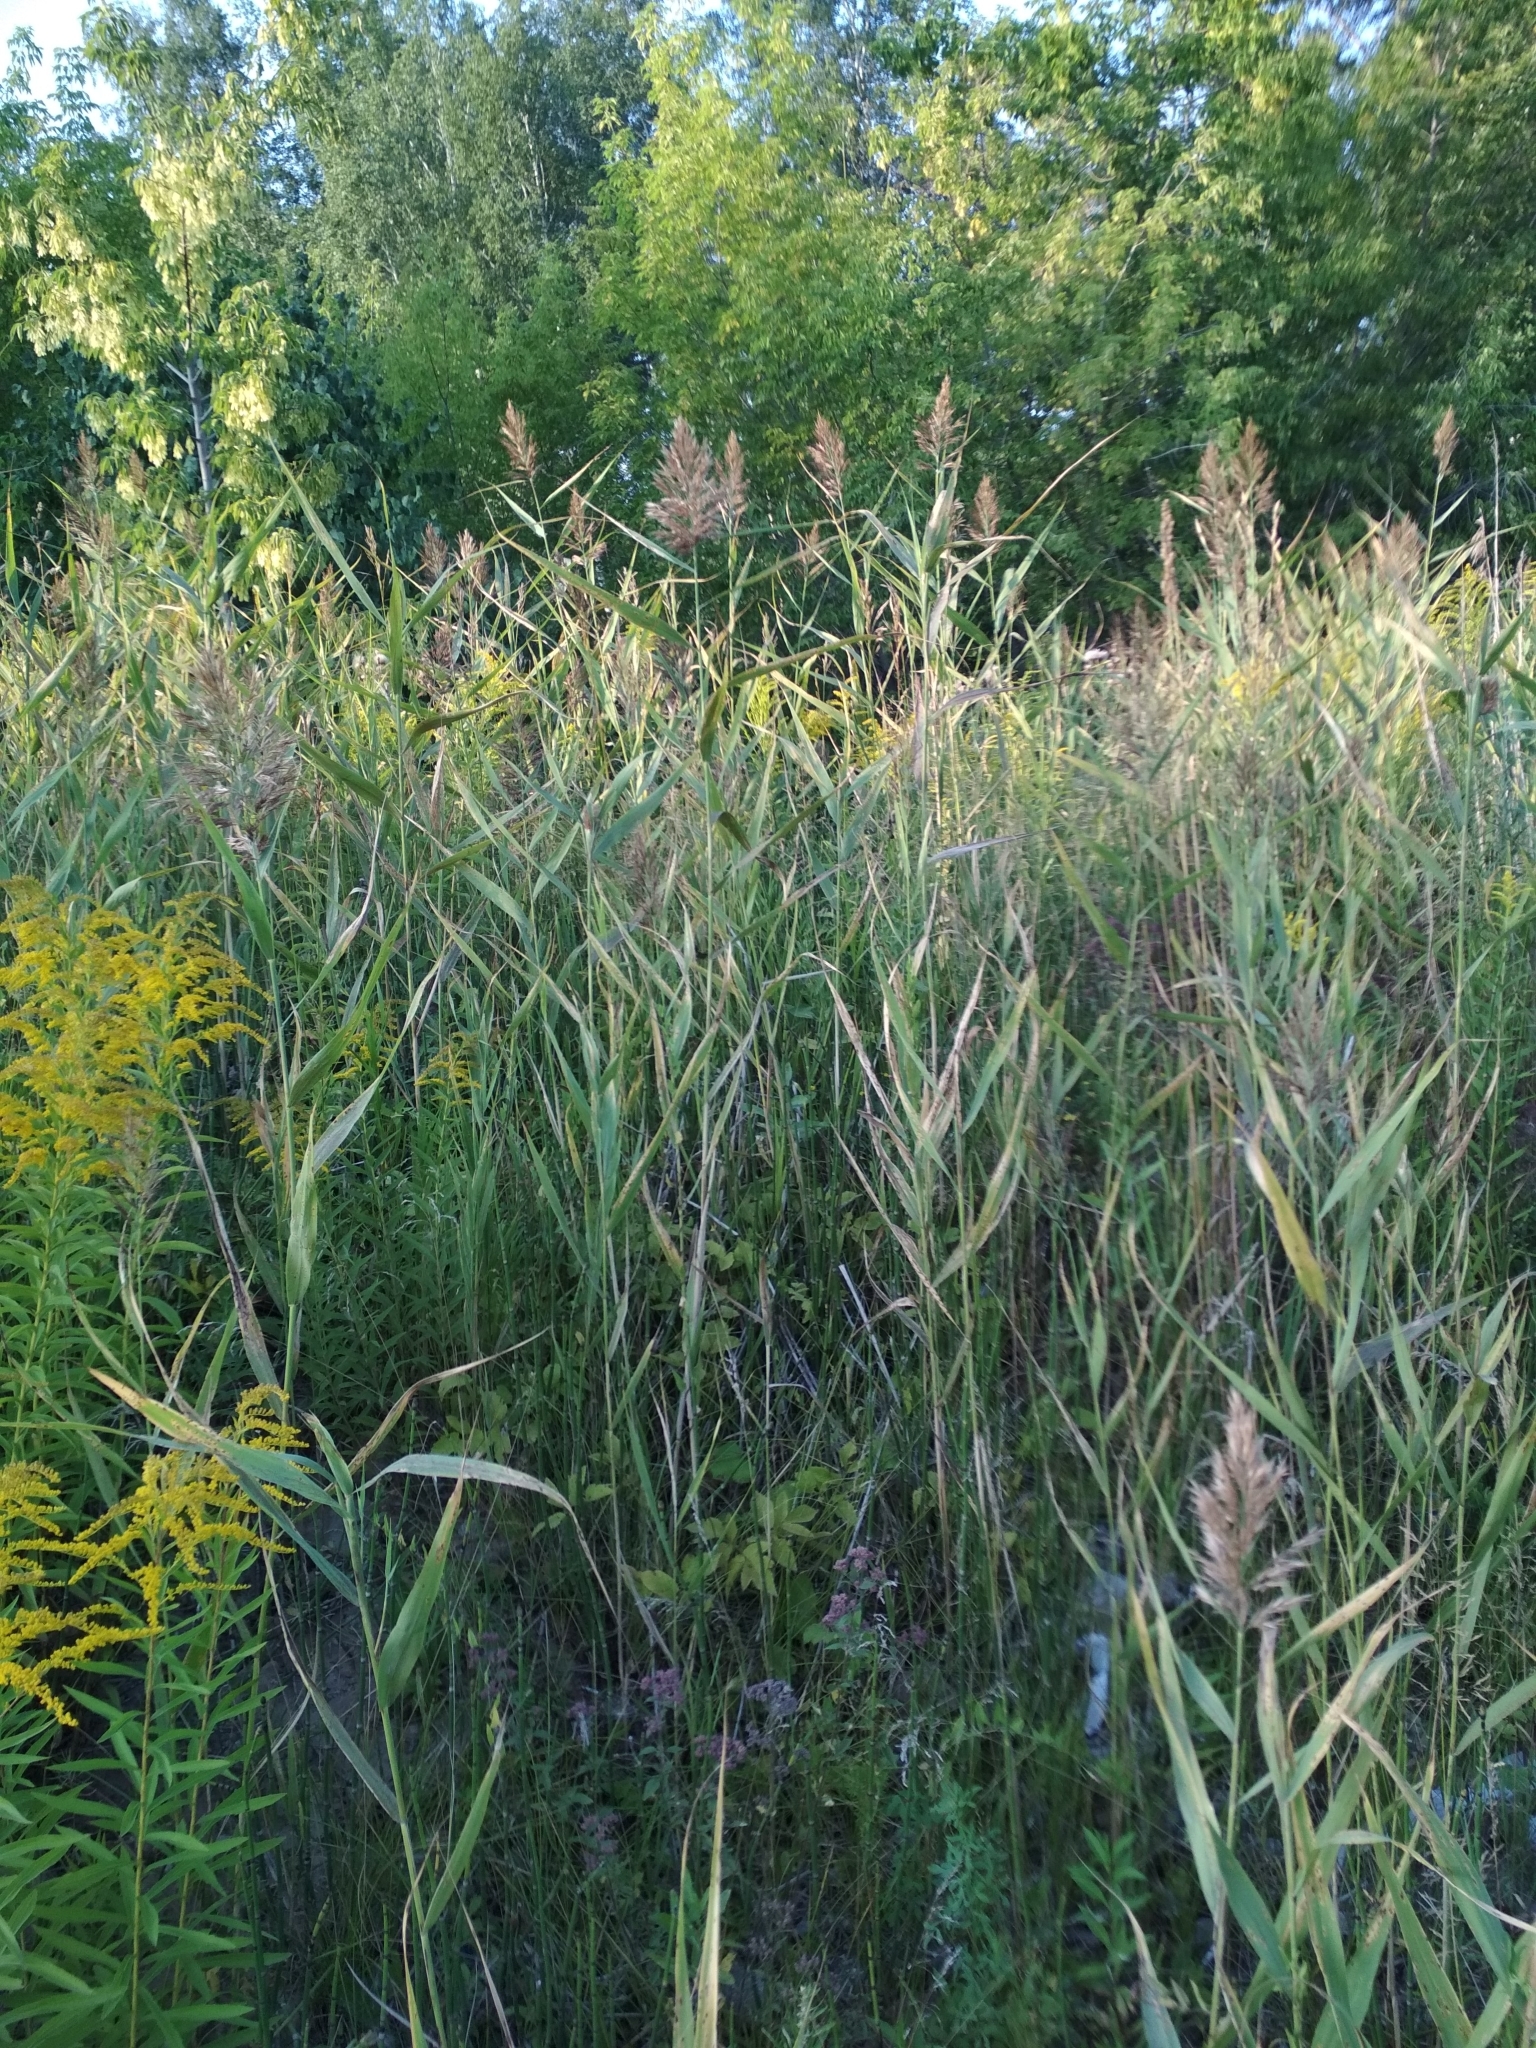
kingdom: Plantae
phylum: Tracheophyta
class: Liliopsida
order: Poales
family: Poaceae
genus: Phragmites
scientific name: Phragmites australis
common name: Common reed
